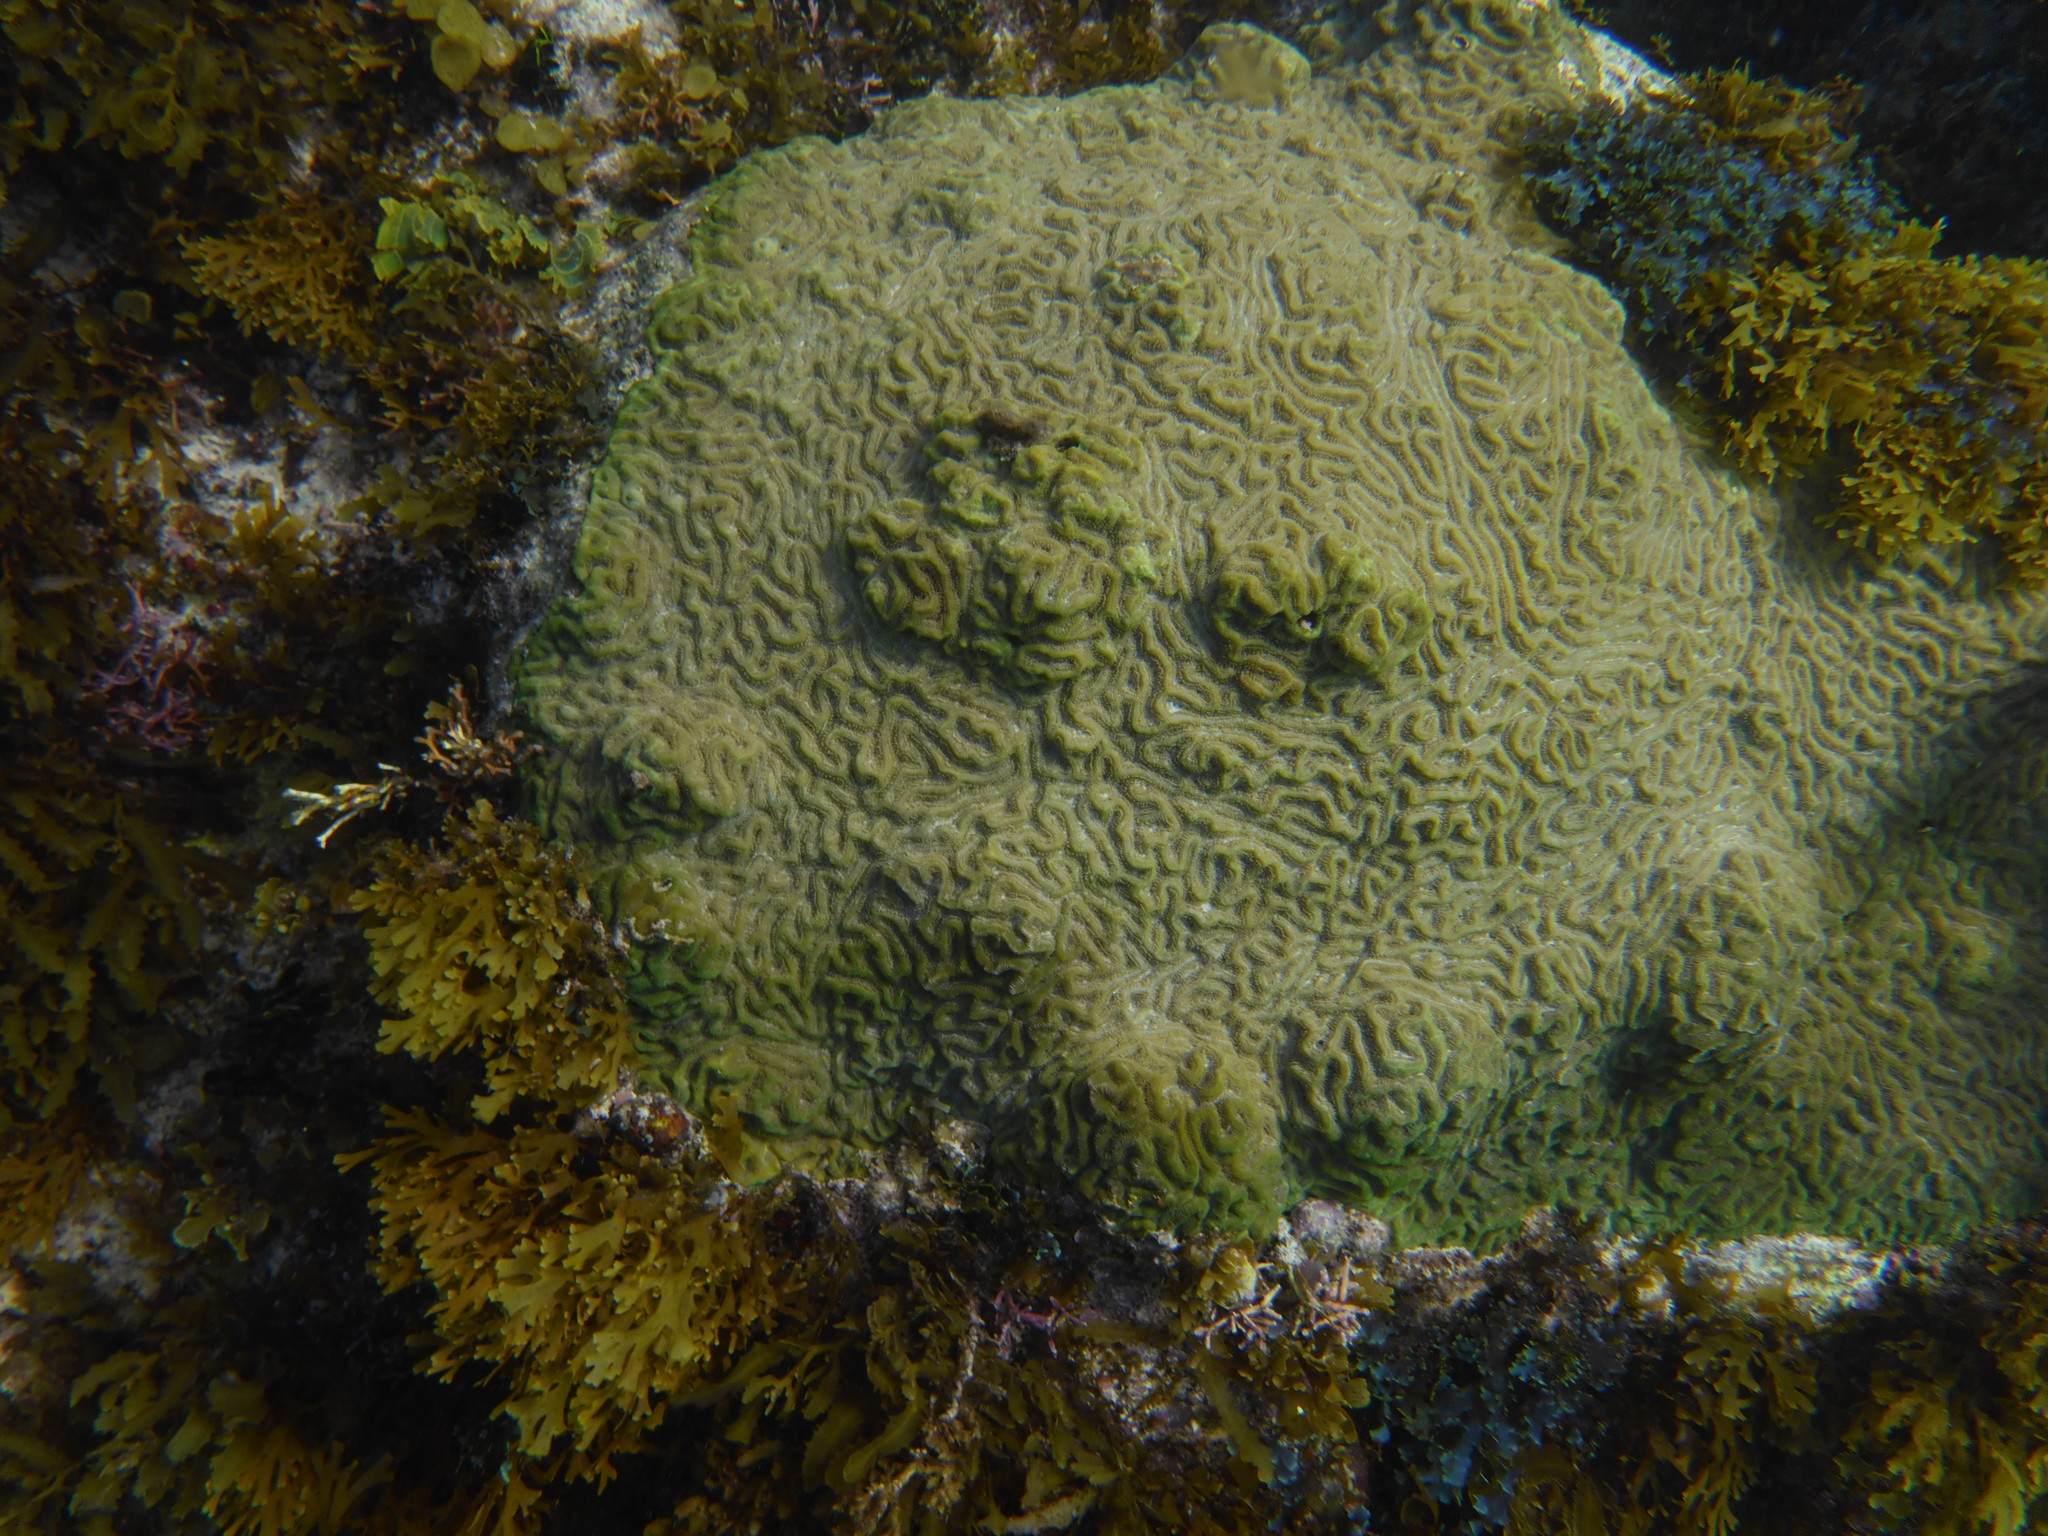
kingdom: Animalia
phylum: Cnidaria
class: Anthozoa
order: Scleractinia
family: Faviidae
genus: Pseudodiploria
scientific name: Pseudodiploria clivosa
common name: Knobby brain coral
